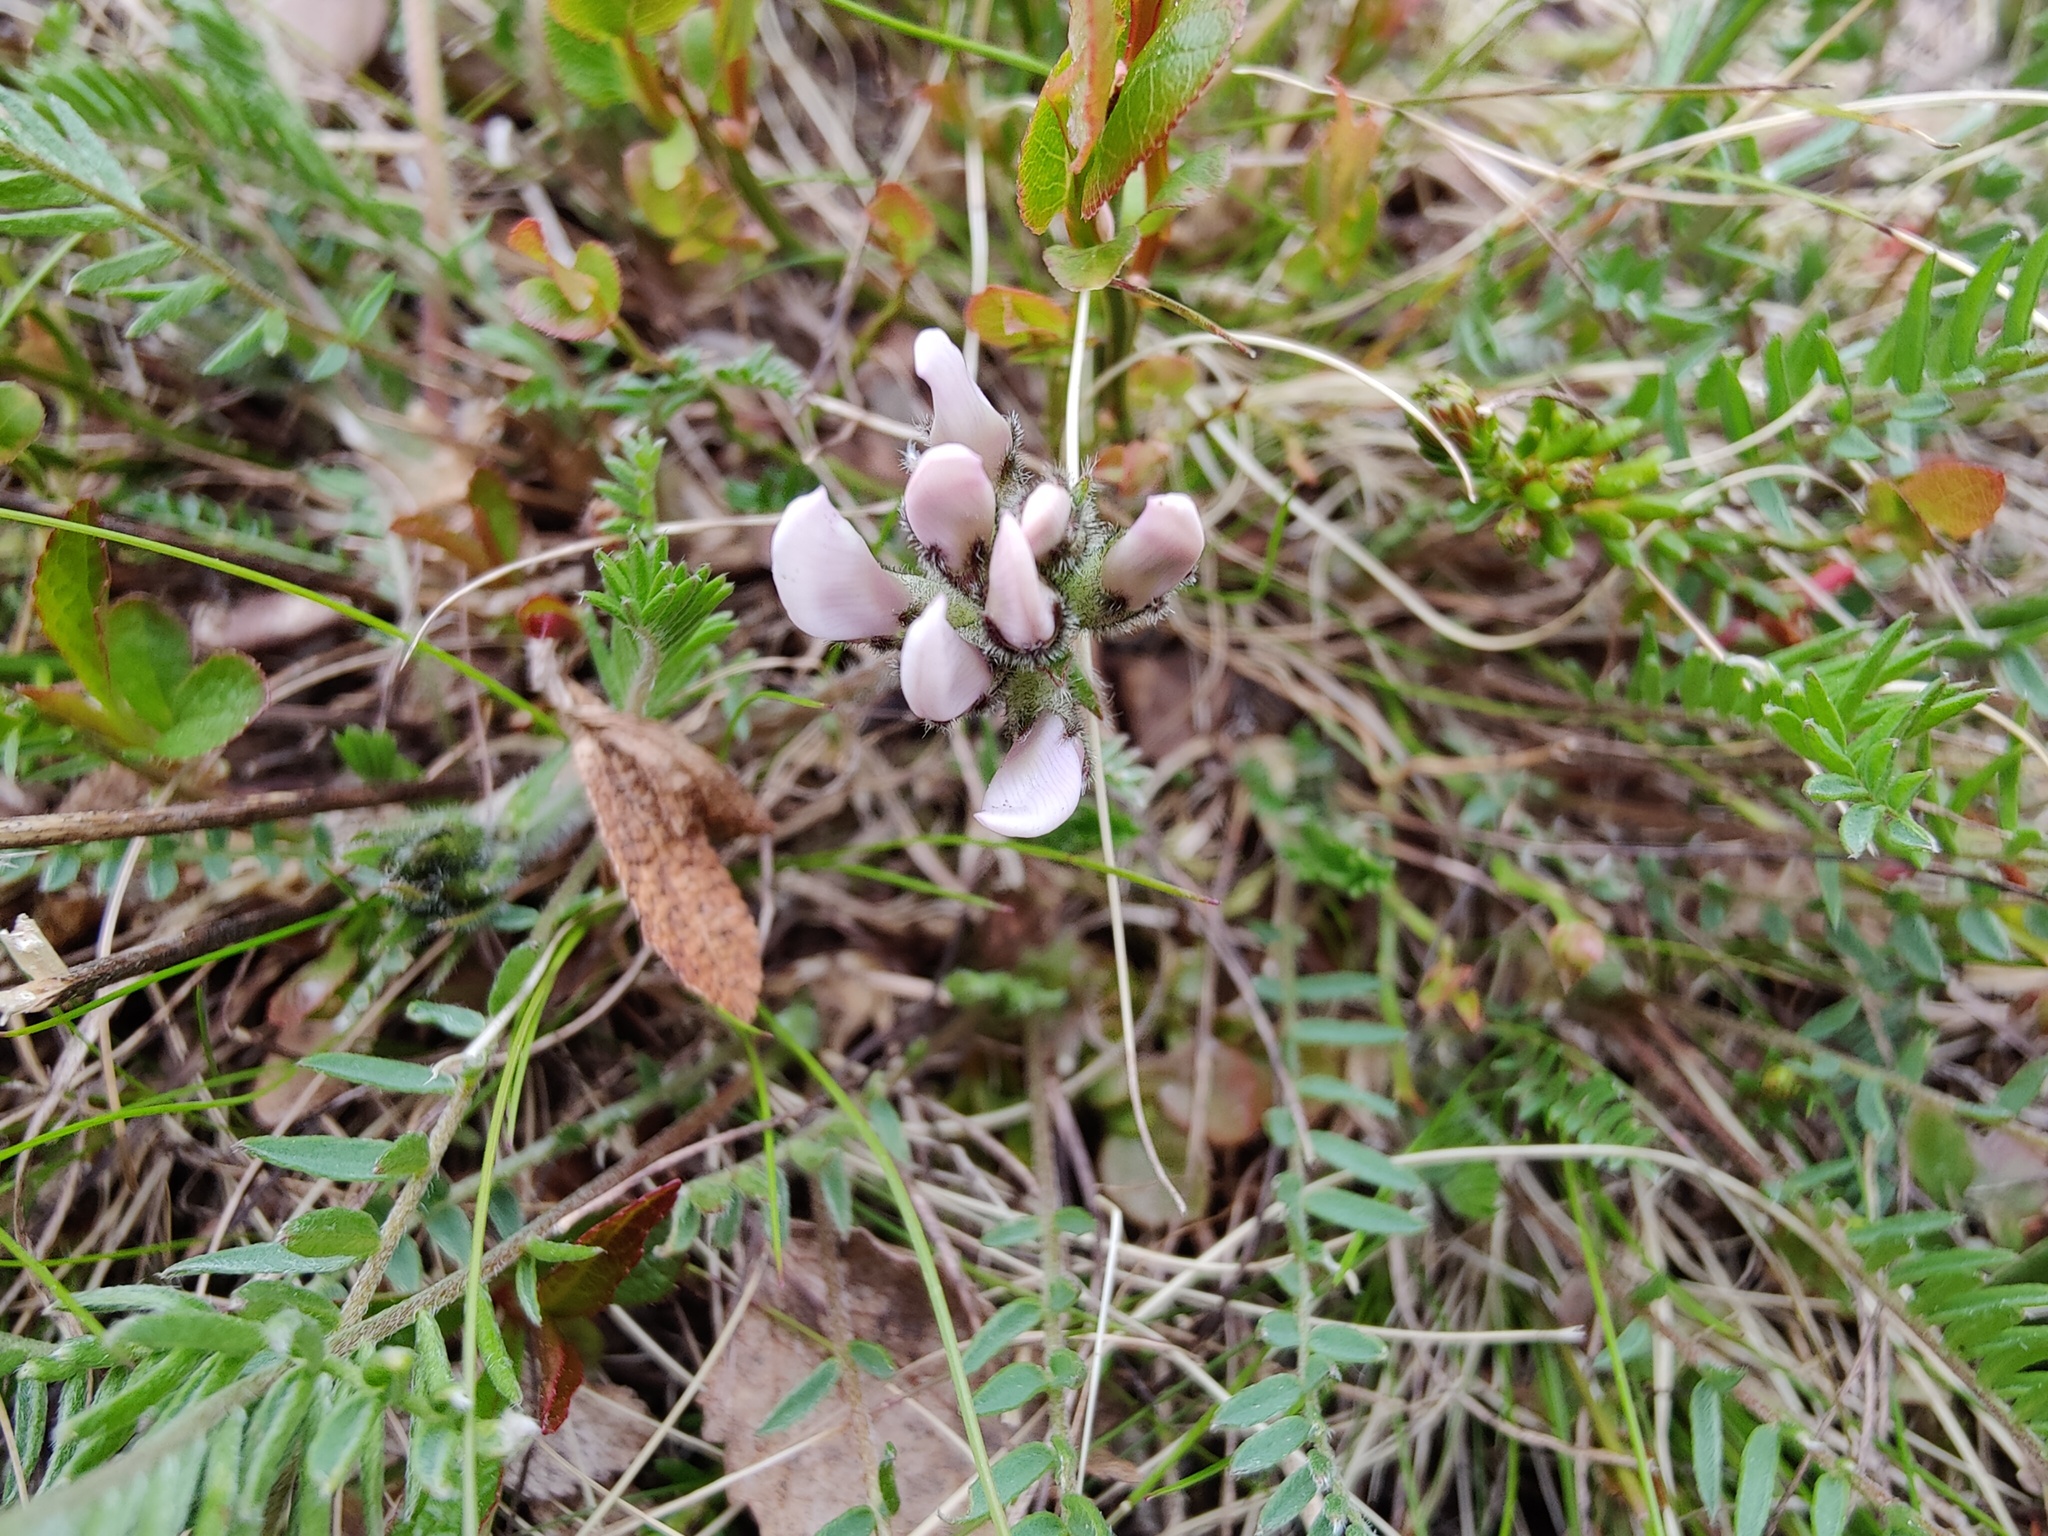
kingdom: Plantae
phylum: Tracheophyta
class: Magnoliopsida
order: Fabales
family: Fabaceae
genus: Oxytropis
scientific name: Oxytropis sordida
